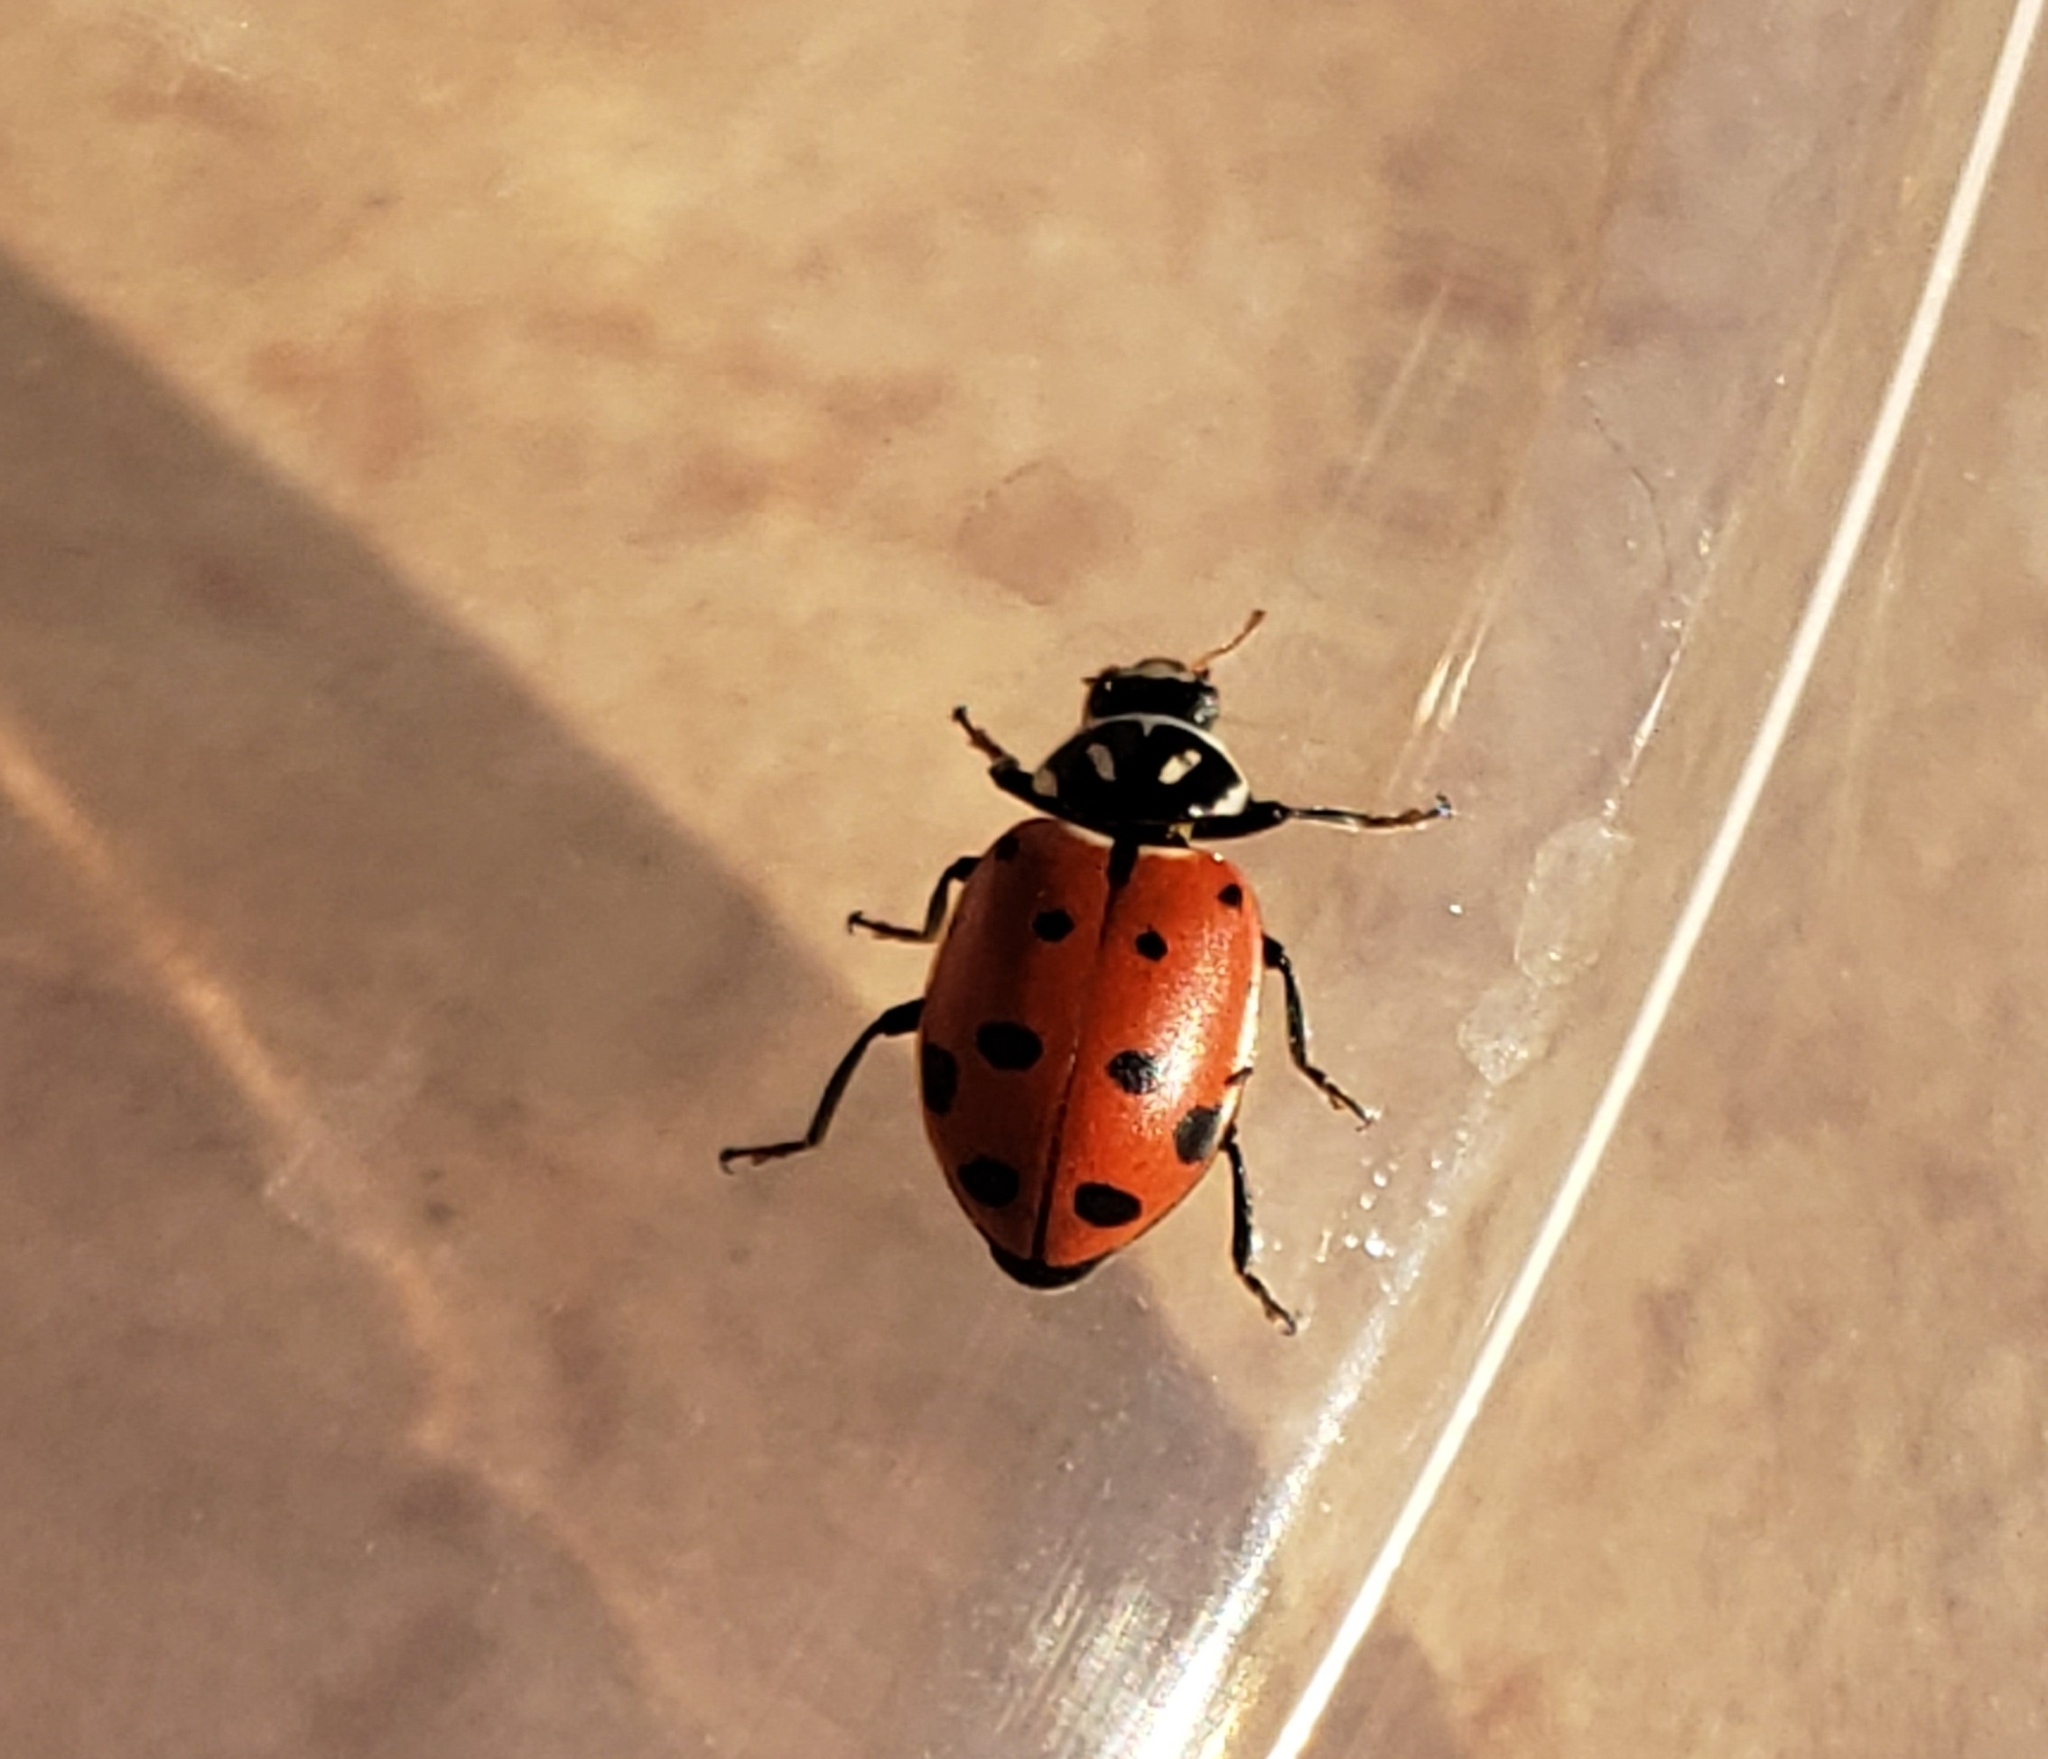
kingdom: Animalia
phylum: Arthropoda
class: Insecta
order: Coleoptera
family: Coccinellidae
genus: Hippodamia
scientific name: Hippodamia convergens
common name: Convergent lady beetle
